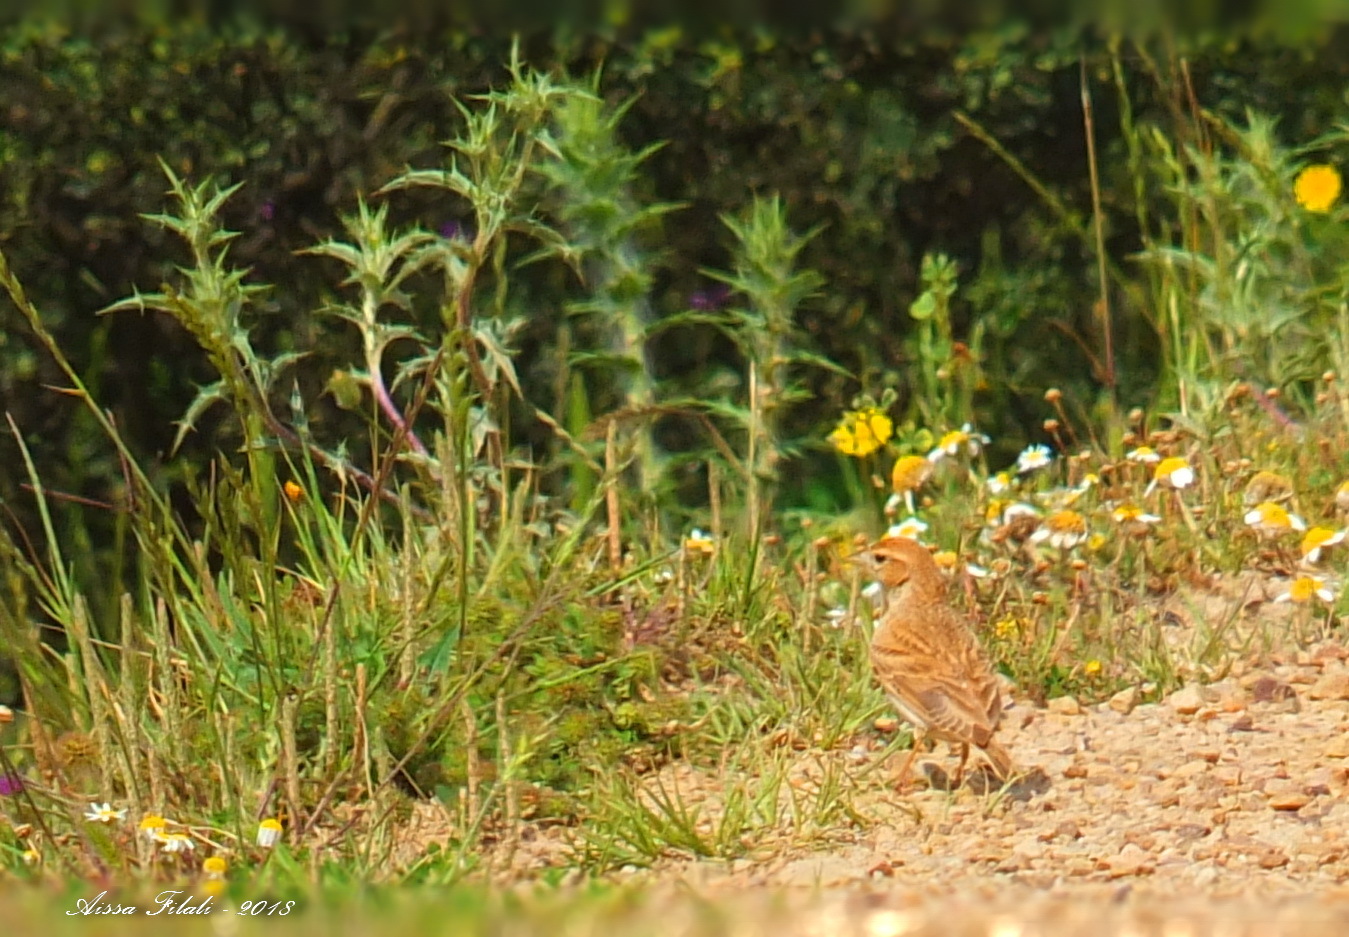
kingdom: Animalia
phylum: Chordata
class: Aves
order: Passeriformes
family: Alaudidae
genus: Calandrella
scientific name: Calandrella brachydactyla
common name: Greater short-toed lark
